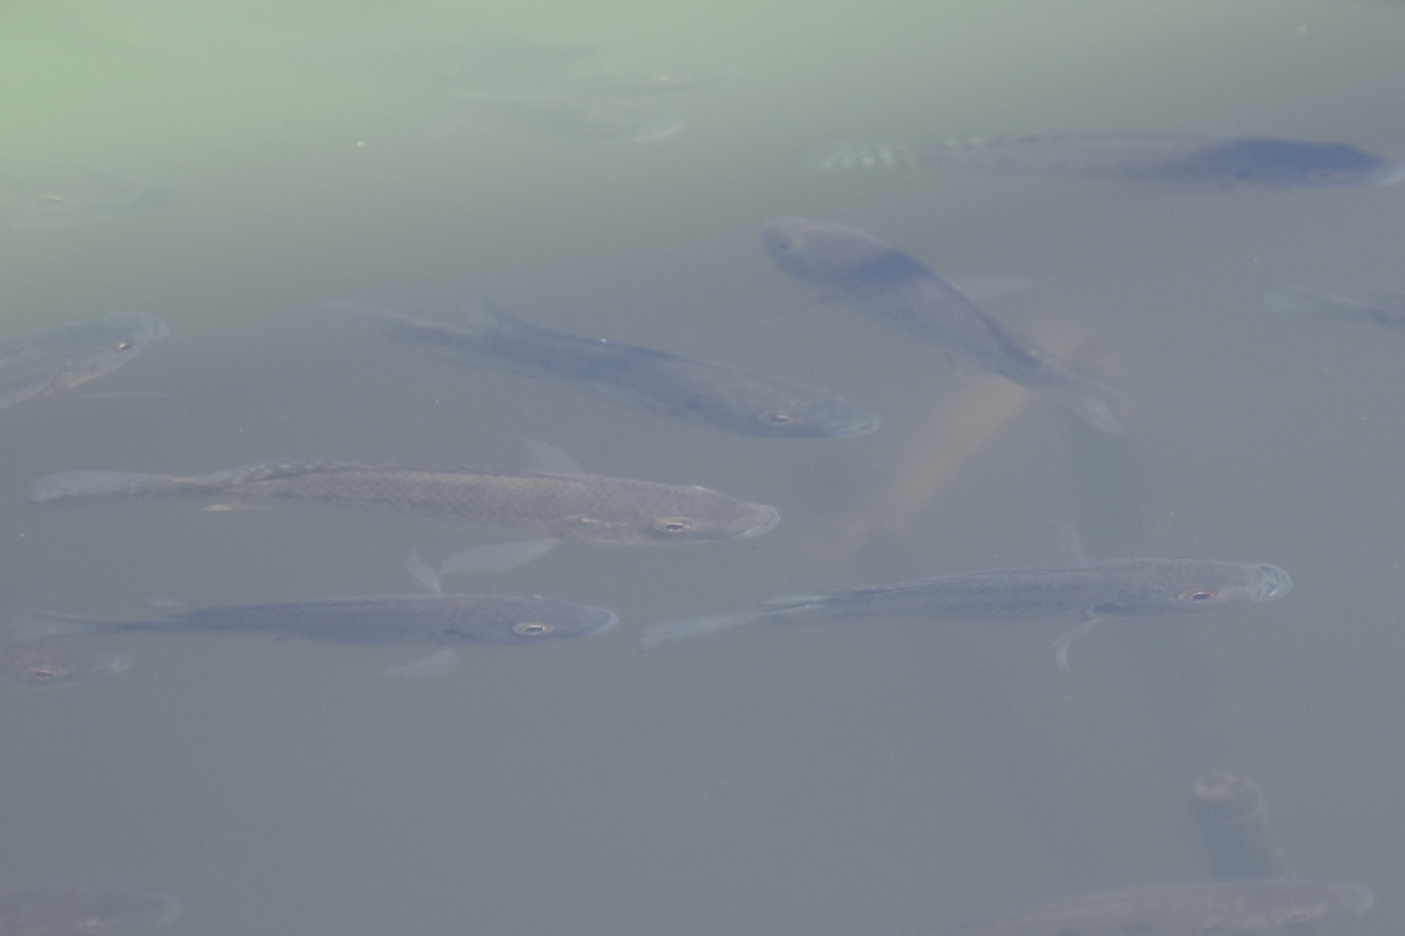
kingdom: Animalia
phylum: Chordata
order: Perciformes
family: Cichlidae
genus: Oreochromis
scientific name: Oreochromis mossambicus
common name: Mozambique tilapia
